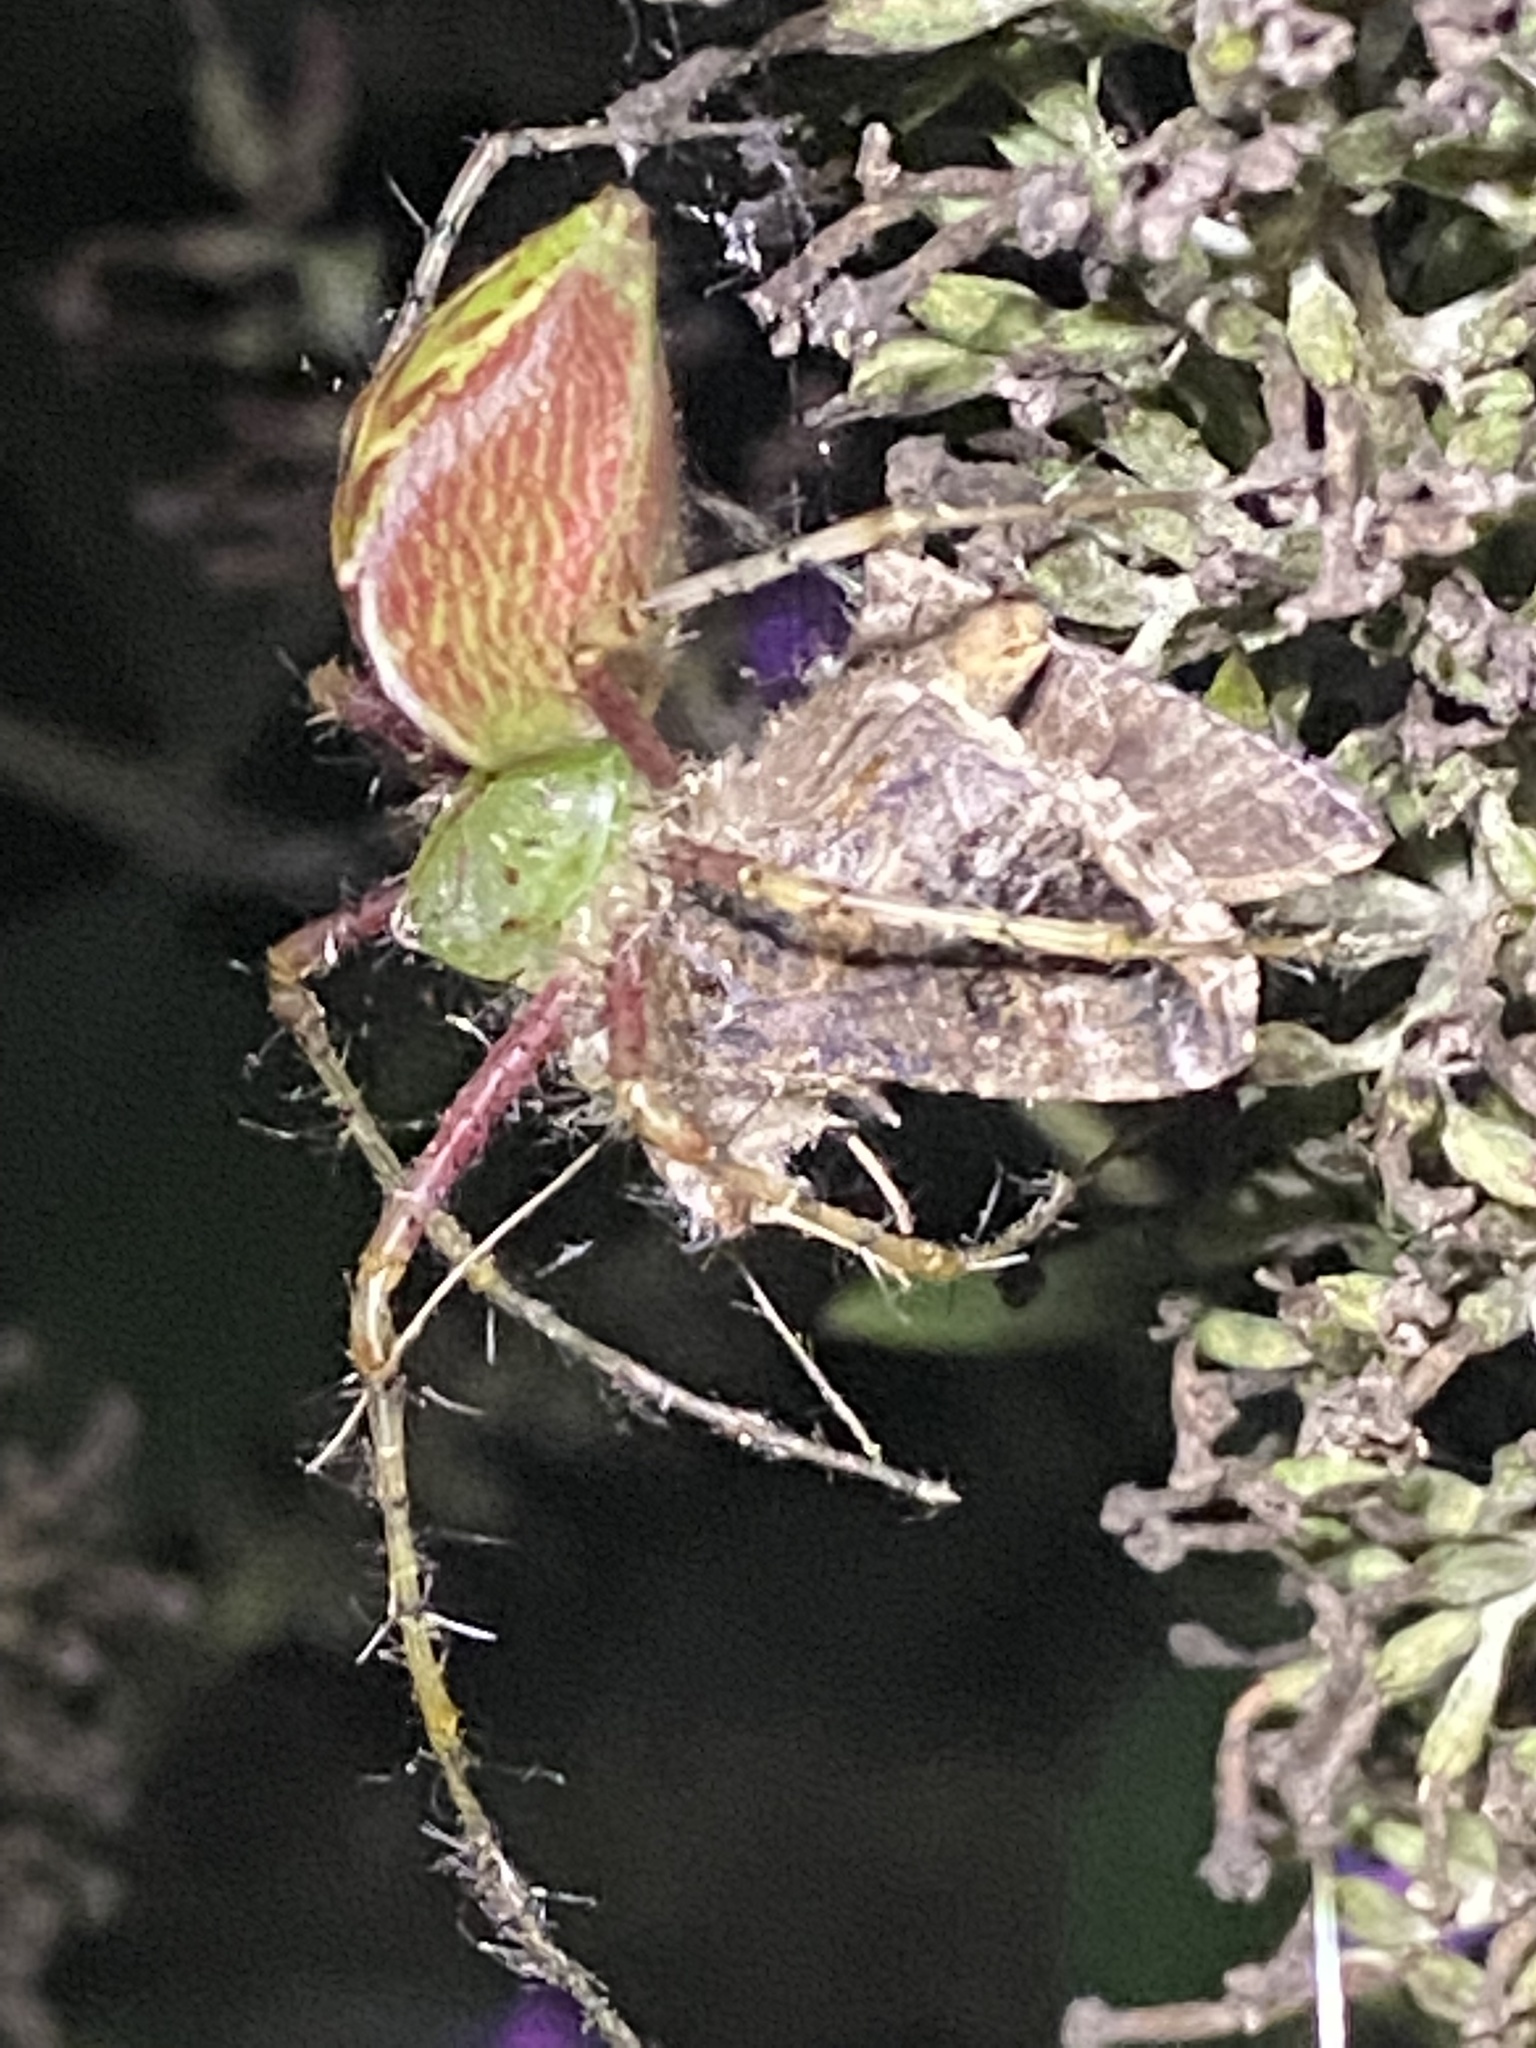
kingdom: Animalia
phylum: Arthropoda
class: Arachnida
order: Araneae
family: Oxyopidae
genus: Peucetia
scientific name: Peucetia viridans
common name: Lynx spiders
